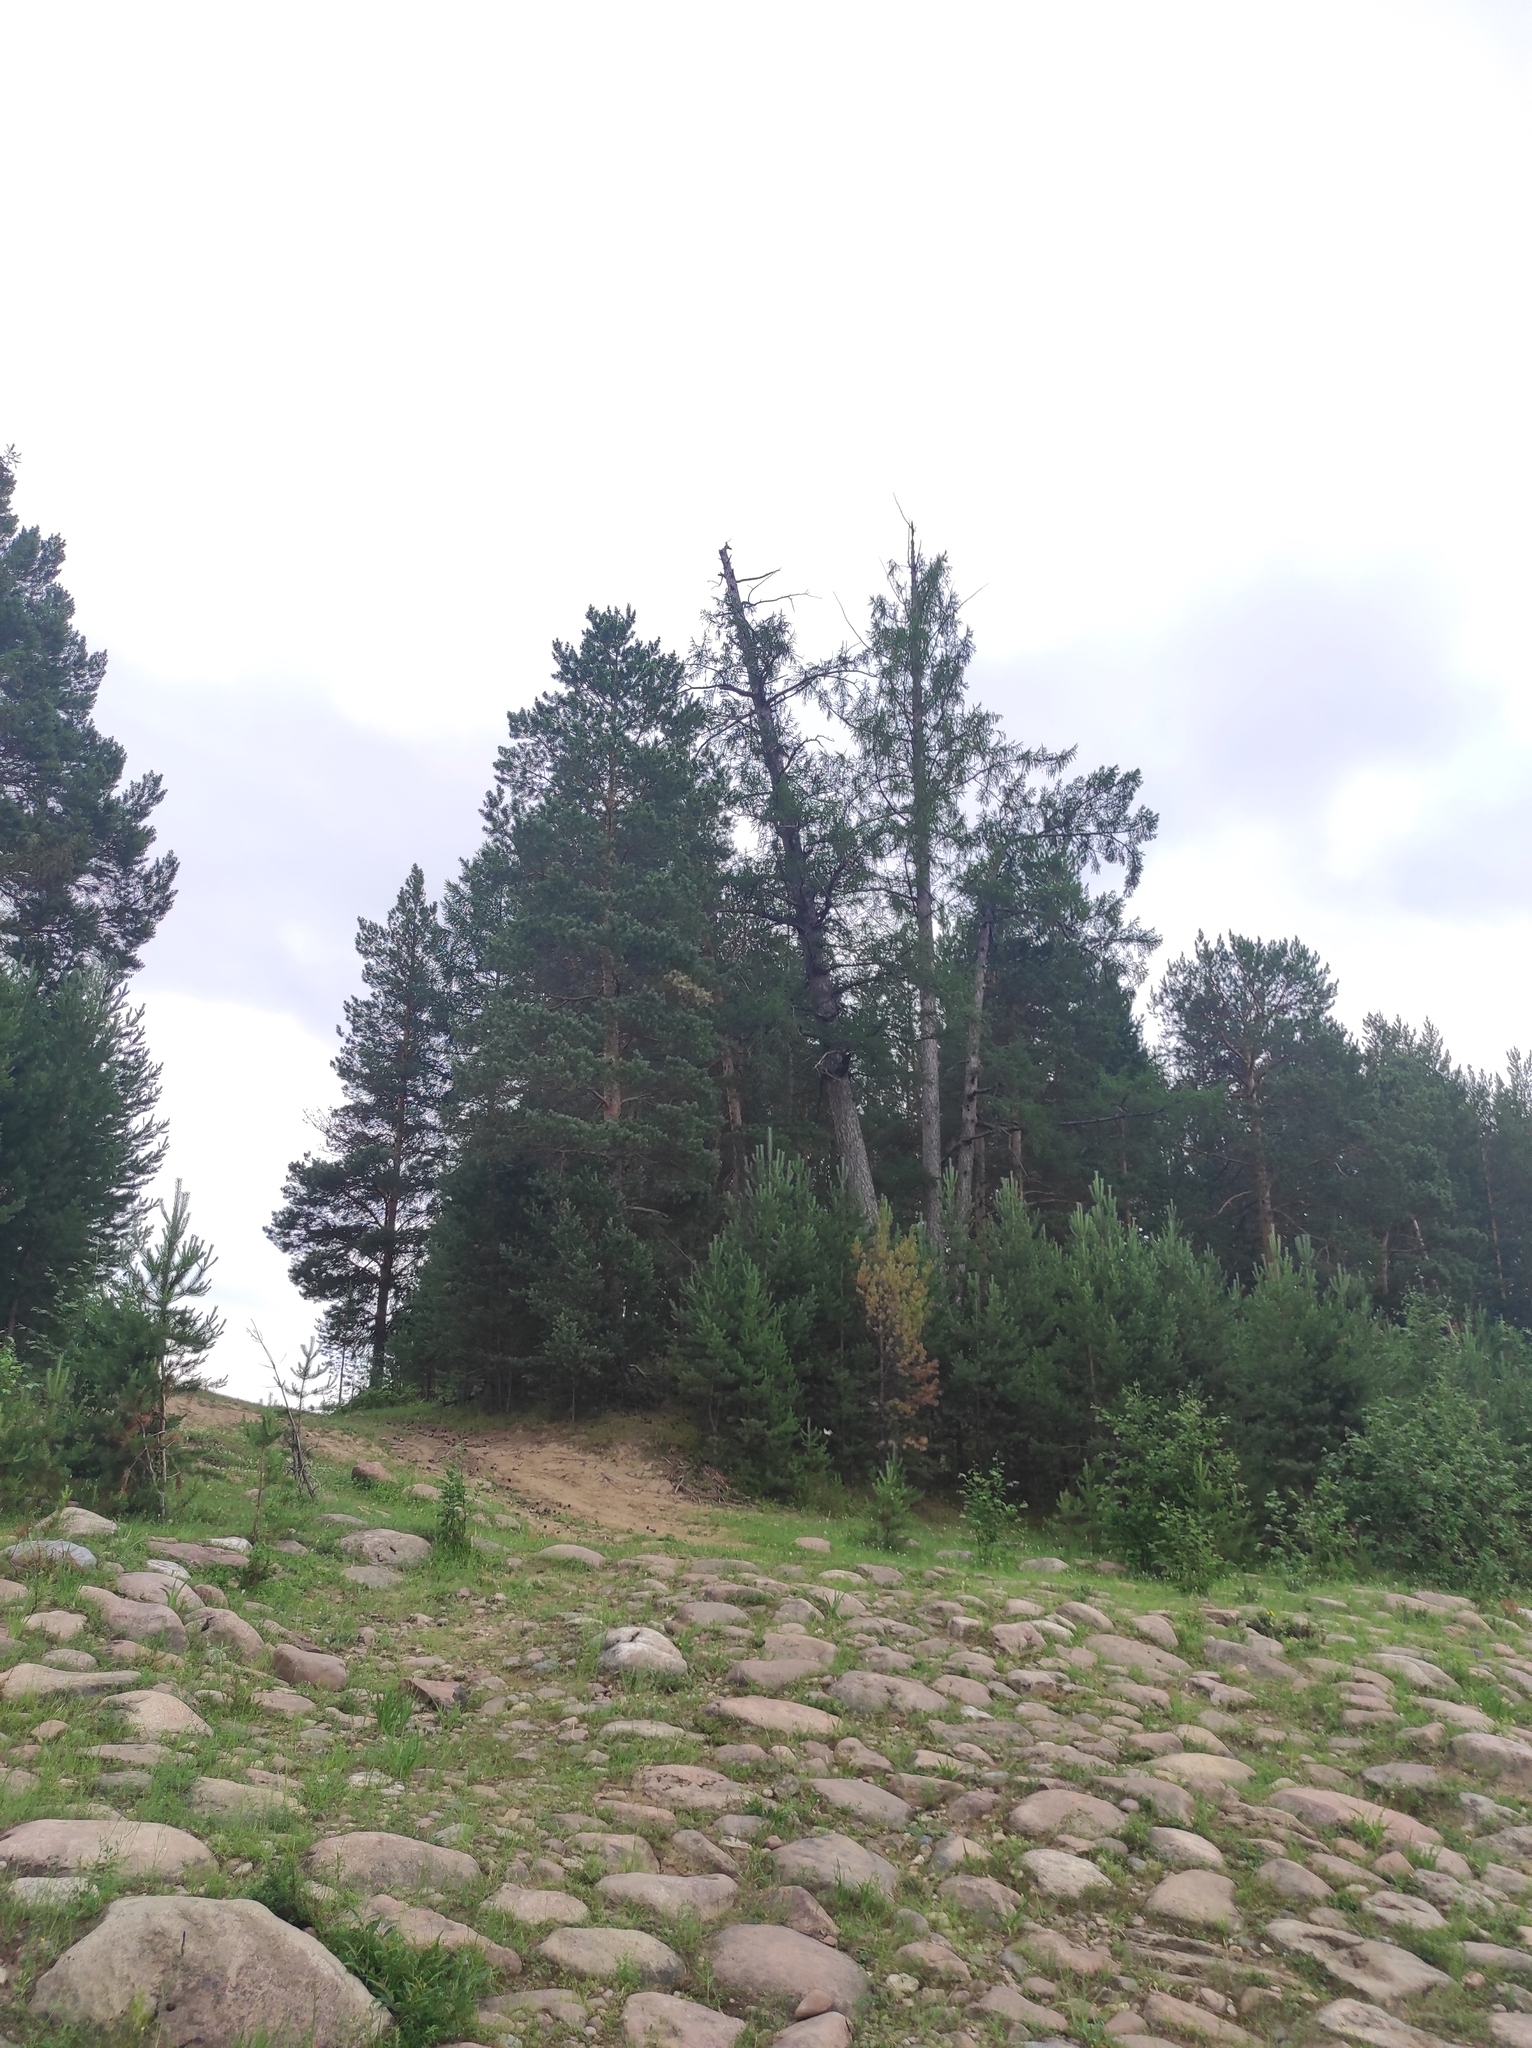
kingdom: Plantae
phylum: Tracheophyta
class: Pinopsida
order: Pinales
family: Pinaceae
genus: Larix
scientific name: Larix gmelinii
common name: Dahurian larch
